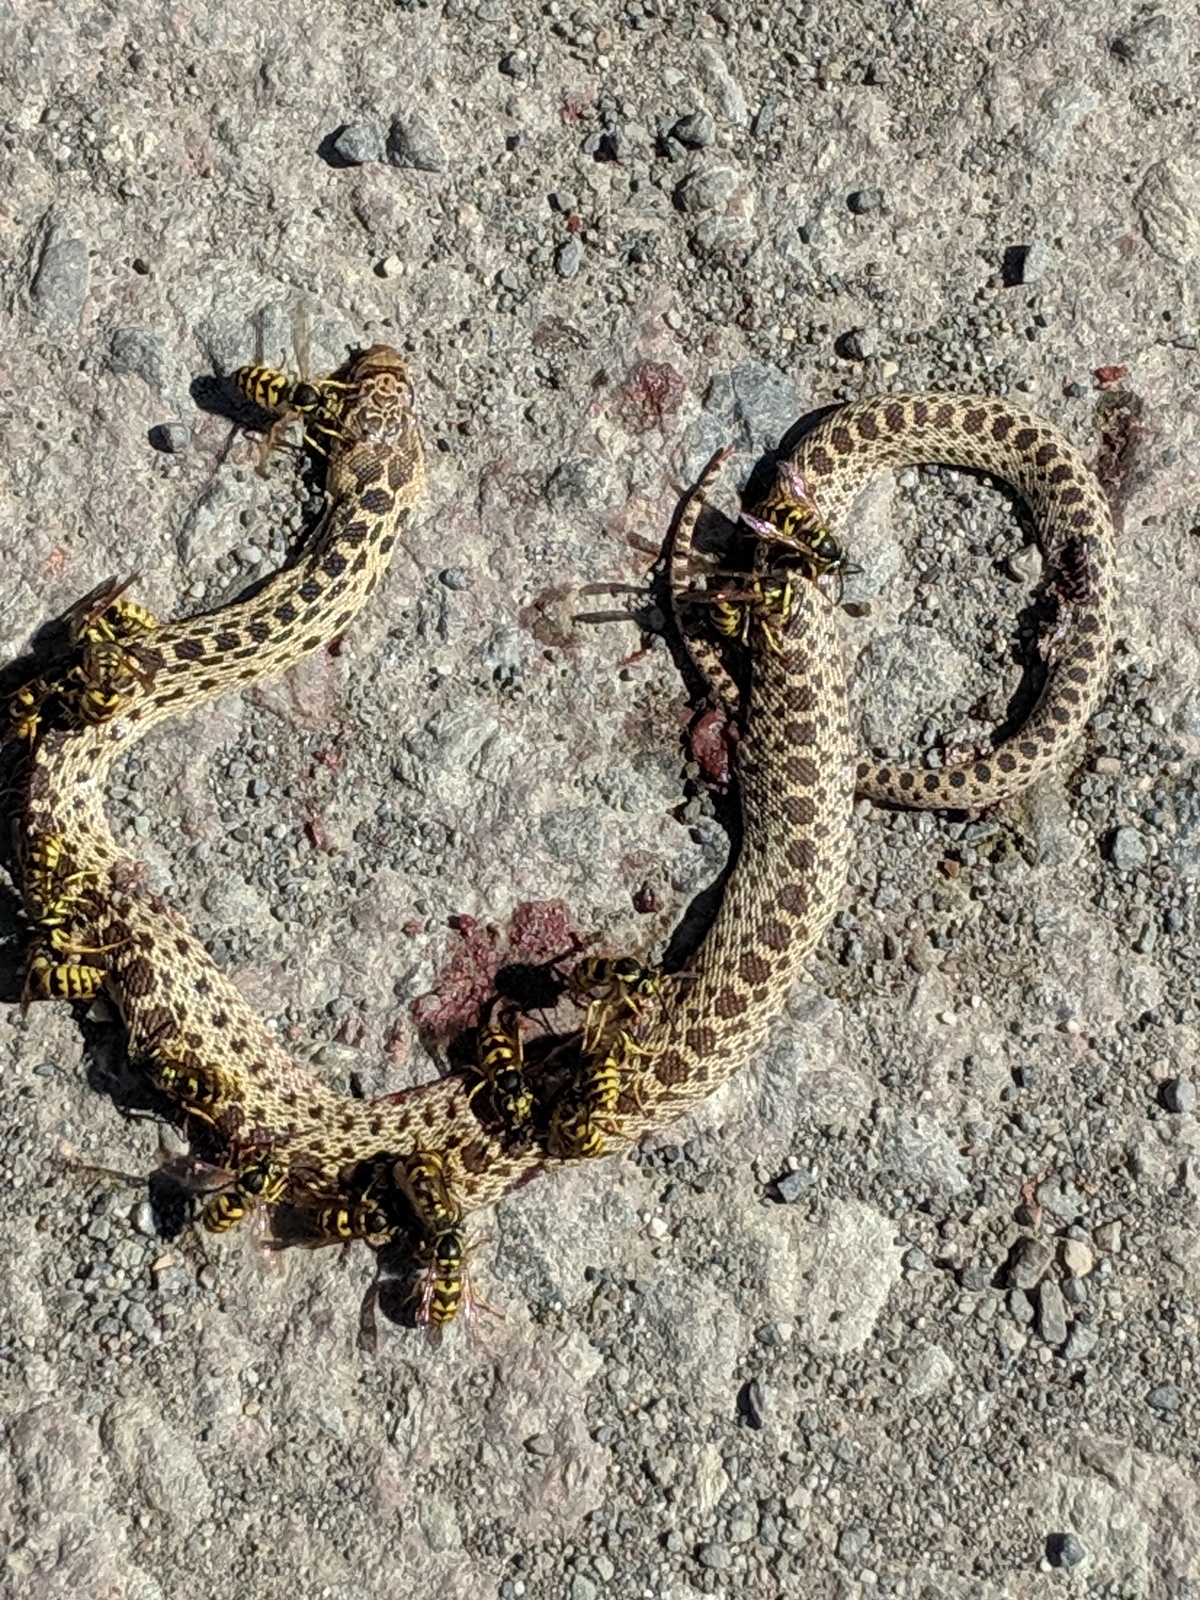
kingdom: Animalia
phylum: Chordata
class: Squamata
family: Colubridae
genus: Pituophis
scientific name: Pituophis catenifer
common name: Gopher snake
